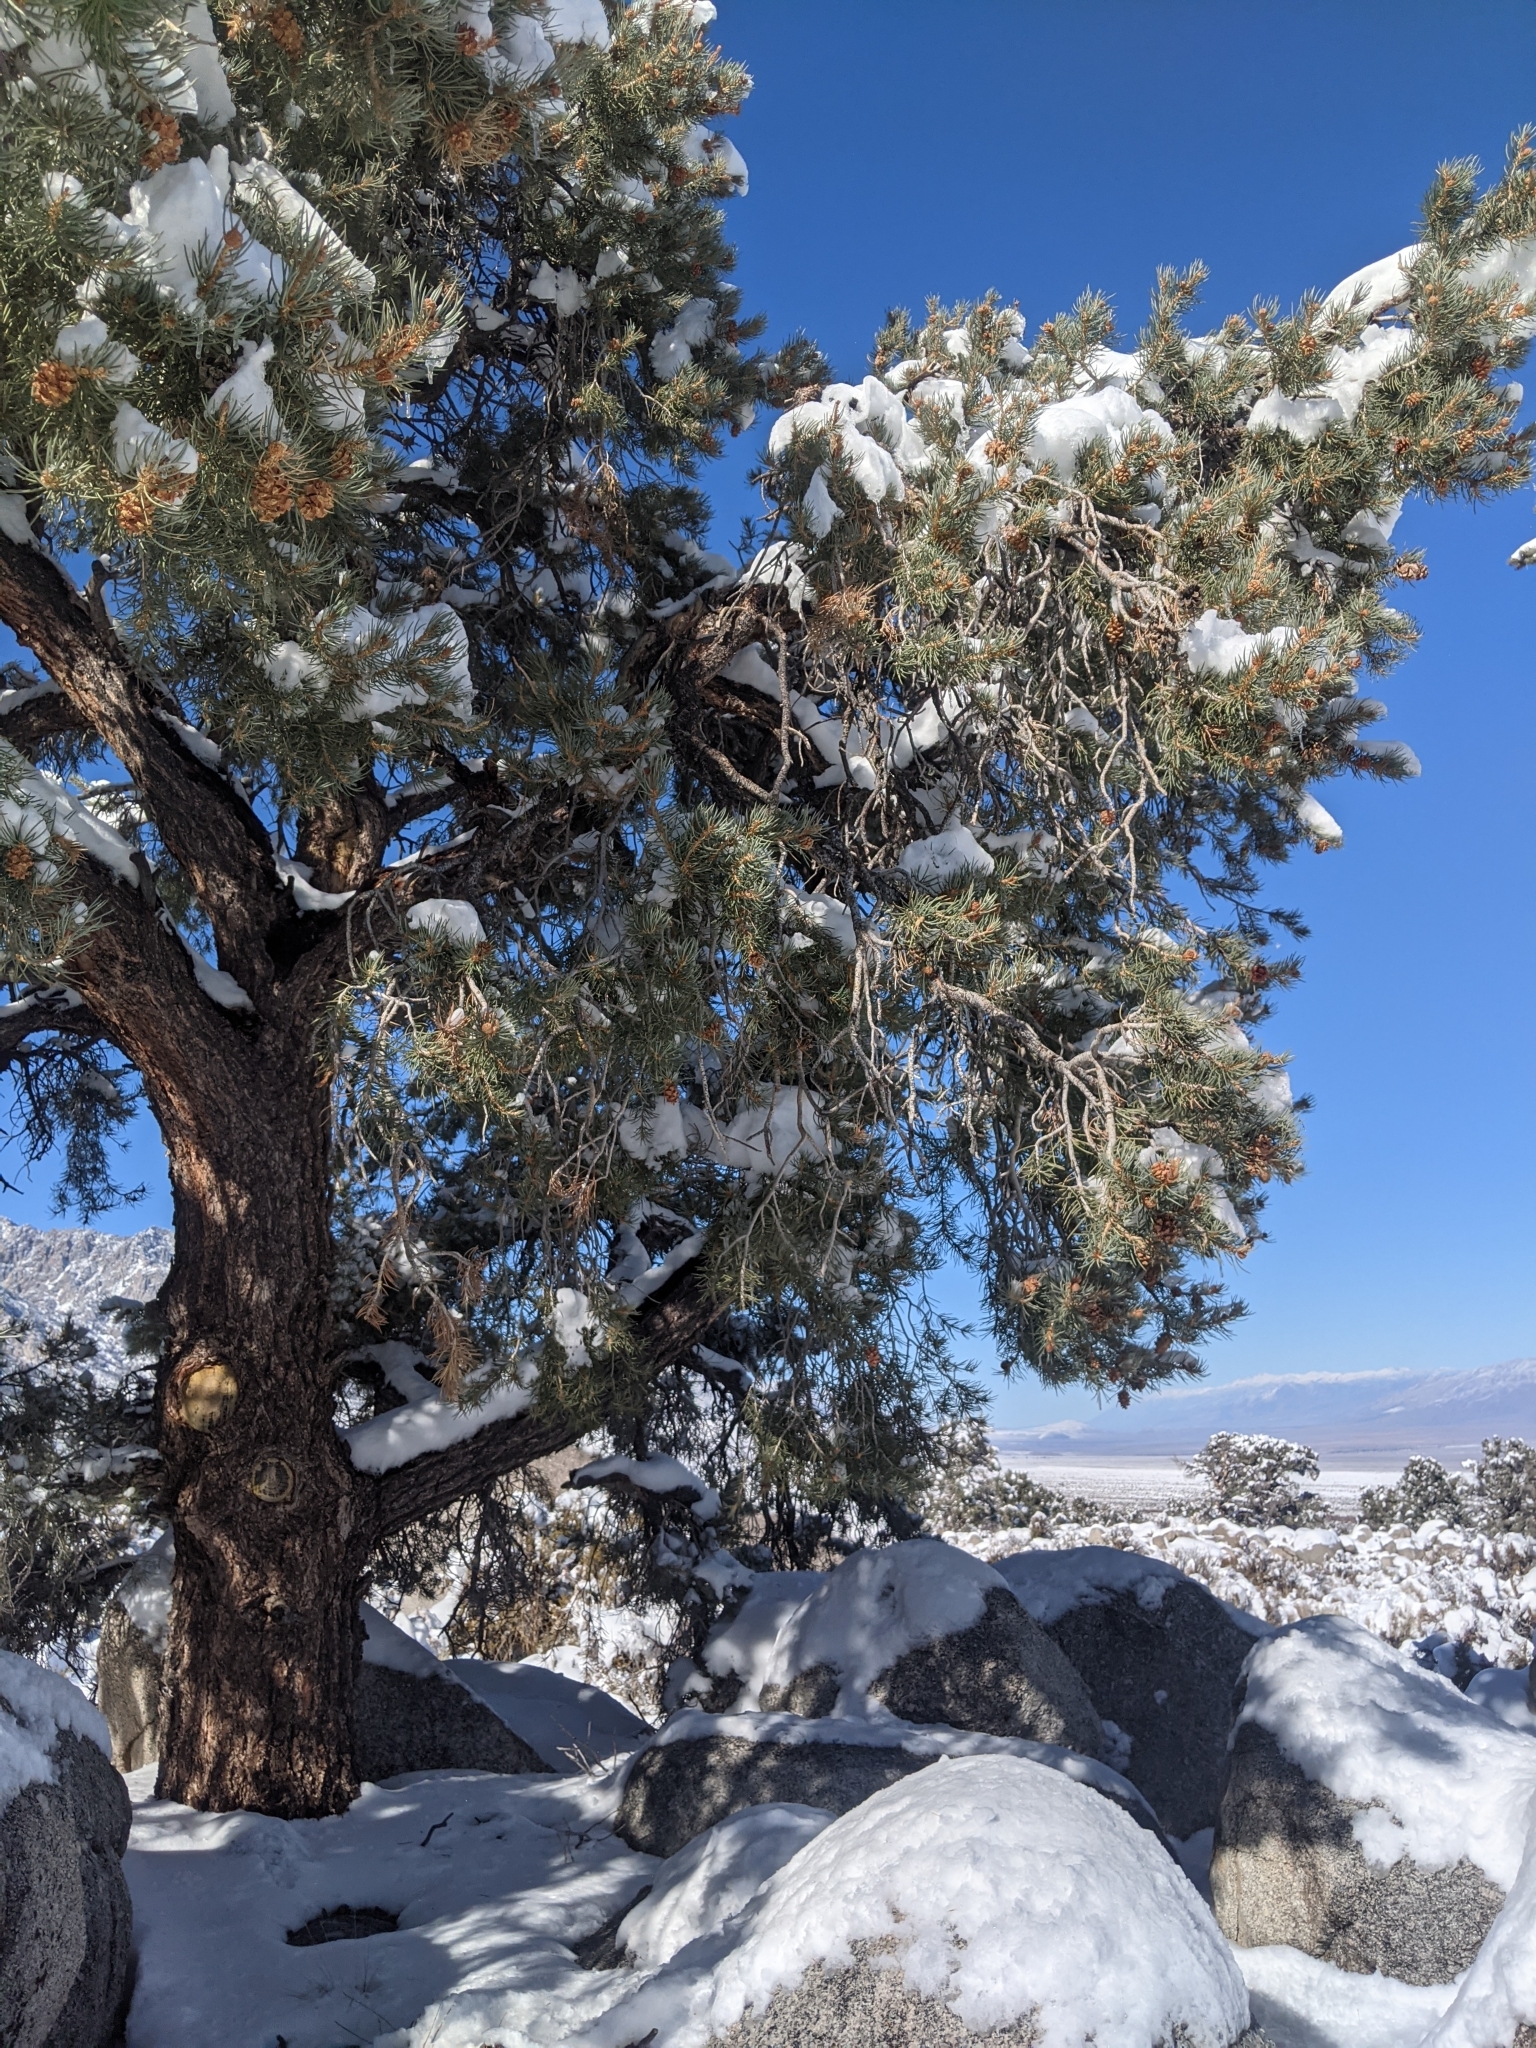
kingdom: Plantae
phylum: Tracheophyta
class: Pinopsida
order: Pinales
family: Pinaceae
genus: Pinus
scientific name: Pinus monophylla
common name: One-leaved nut pine
